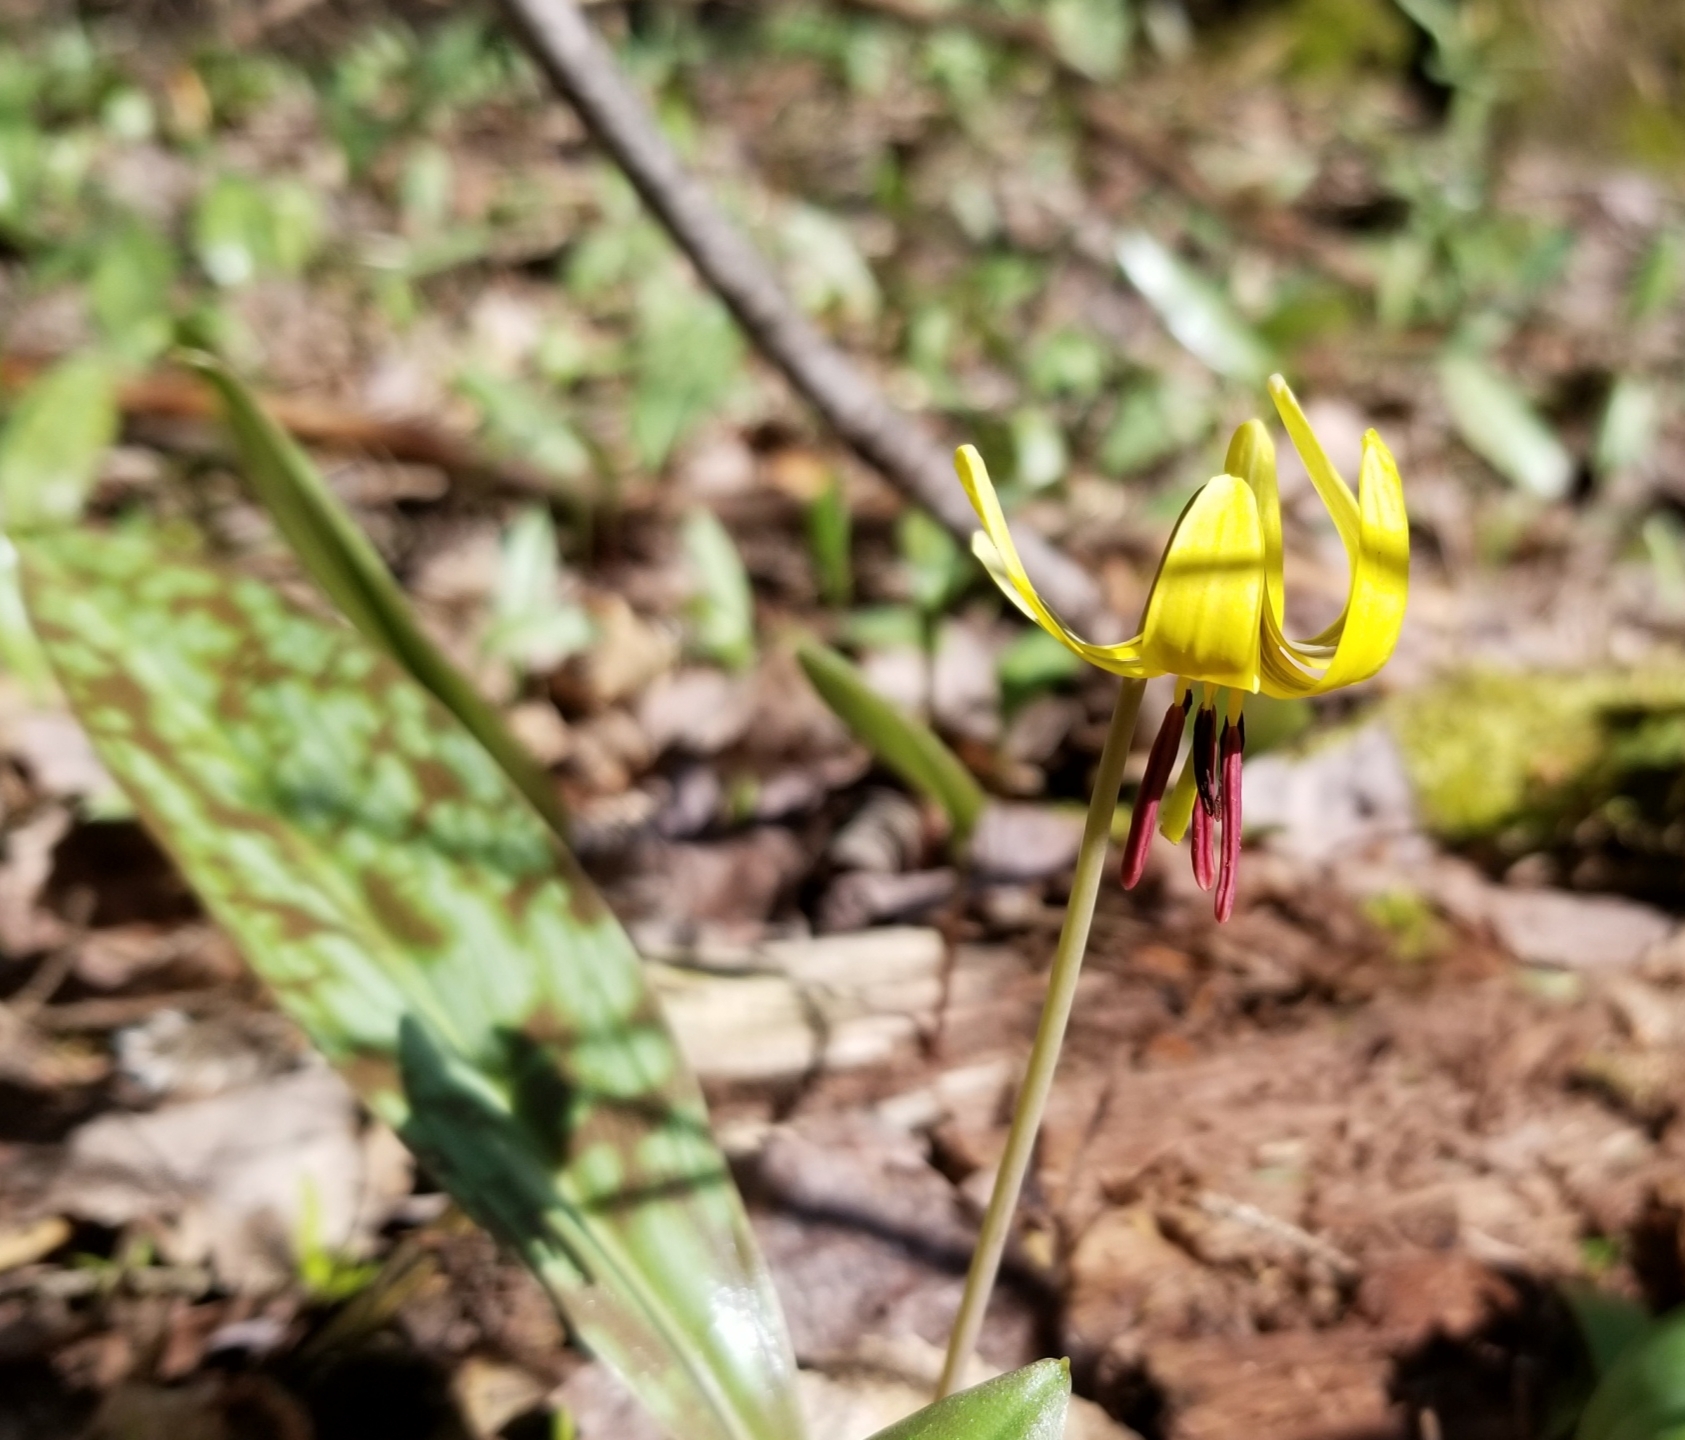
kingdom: Plantae
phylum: Tracheophyta
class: Liliopsida
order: Liliales
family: Liliaceae
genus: Erythronium
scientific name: Erythronium americanum
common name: Yellow adder's-tongue
